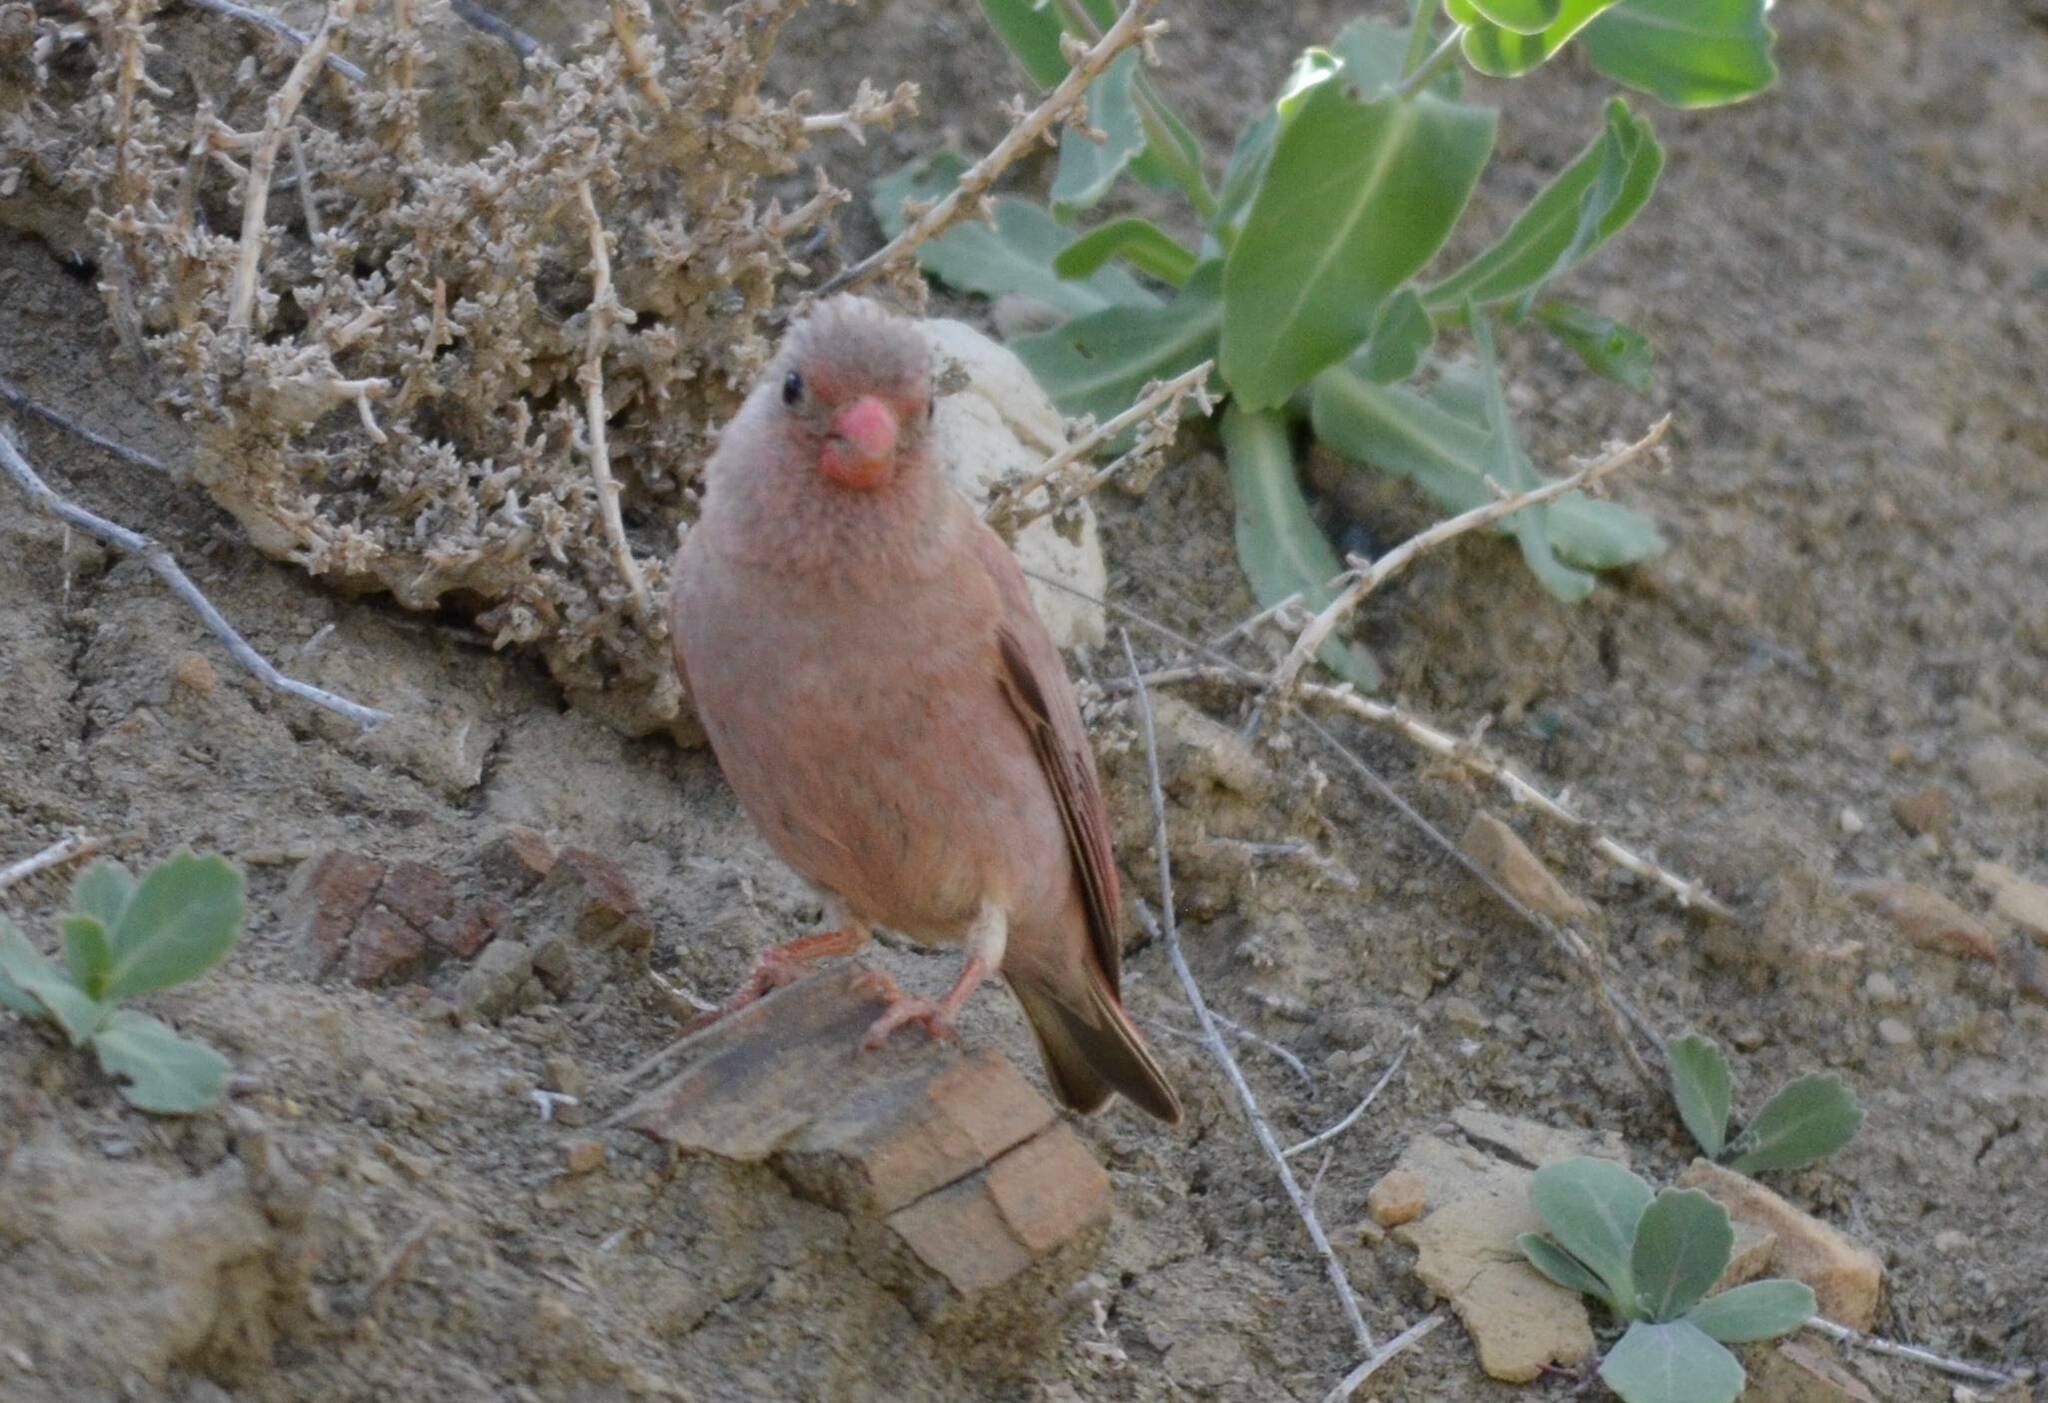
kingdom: Animalia
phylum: Chordata
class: Aves
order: Passeriformes
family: Fringillidae
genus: Bucanetes
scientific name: Bucanetes githagineus
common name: Trumpeter finch
